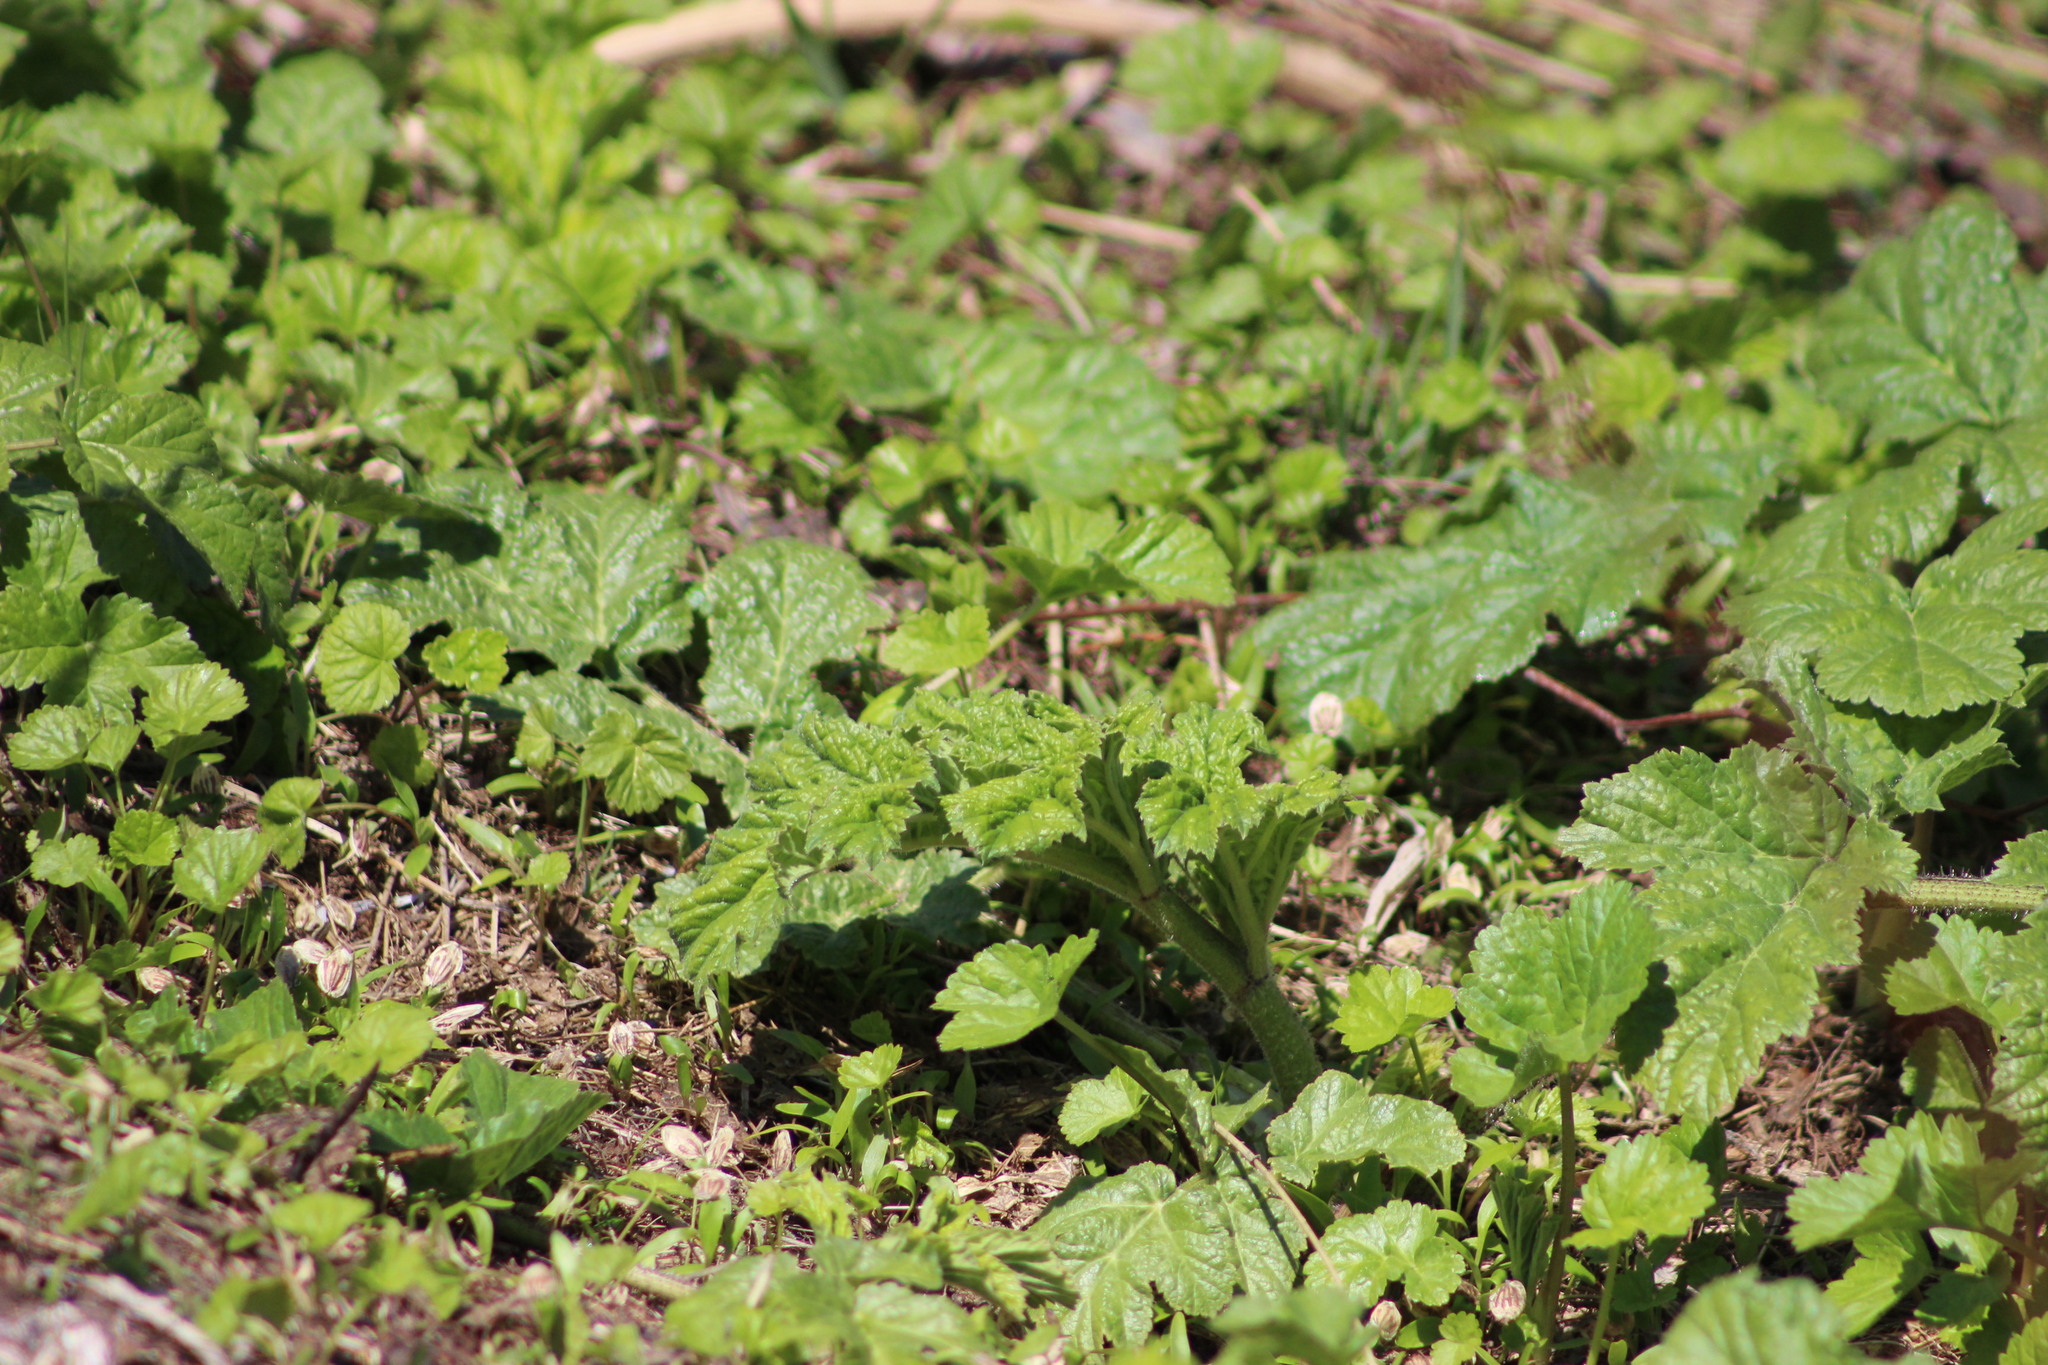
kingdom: Plantae
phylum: Tracheophyta
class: Magnoliopsida
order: Apiales
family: Apiaceae
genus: Heracleum
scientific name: Heracleum sosnowskyi
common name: Sosnowsky's hogweed
